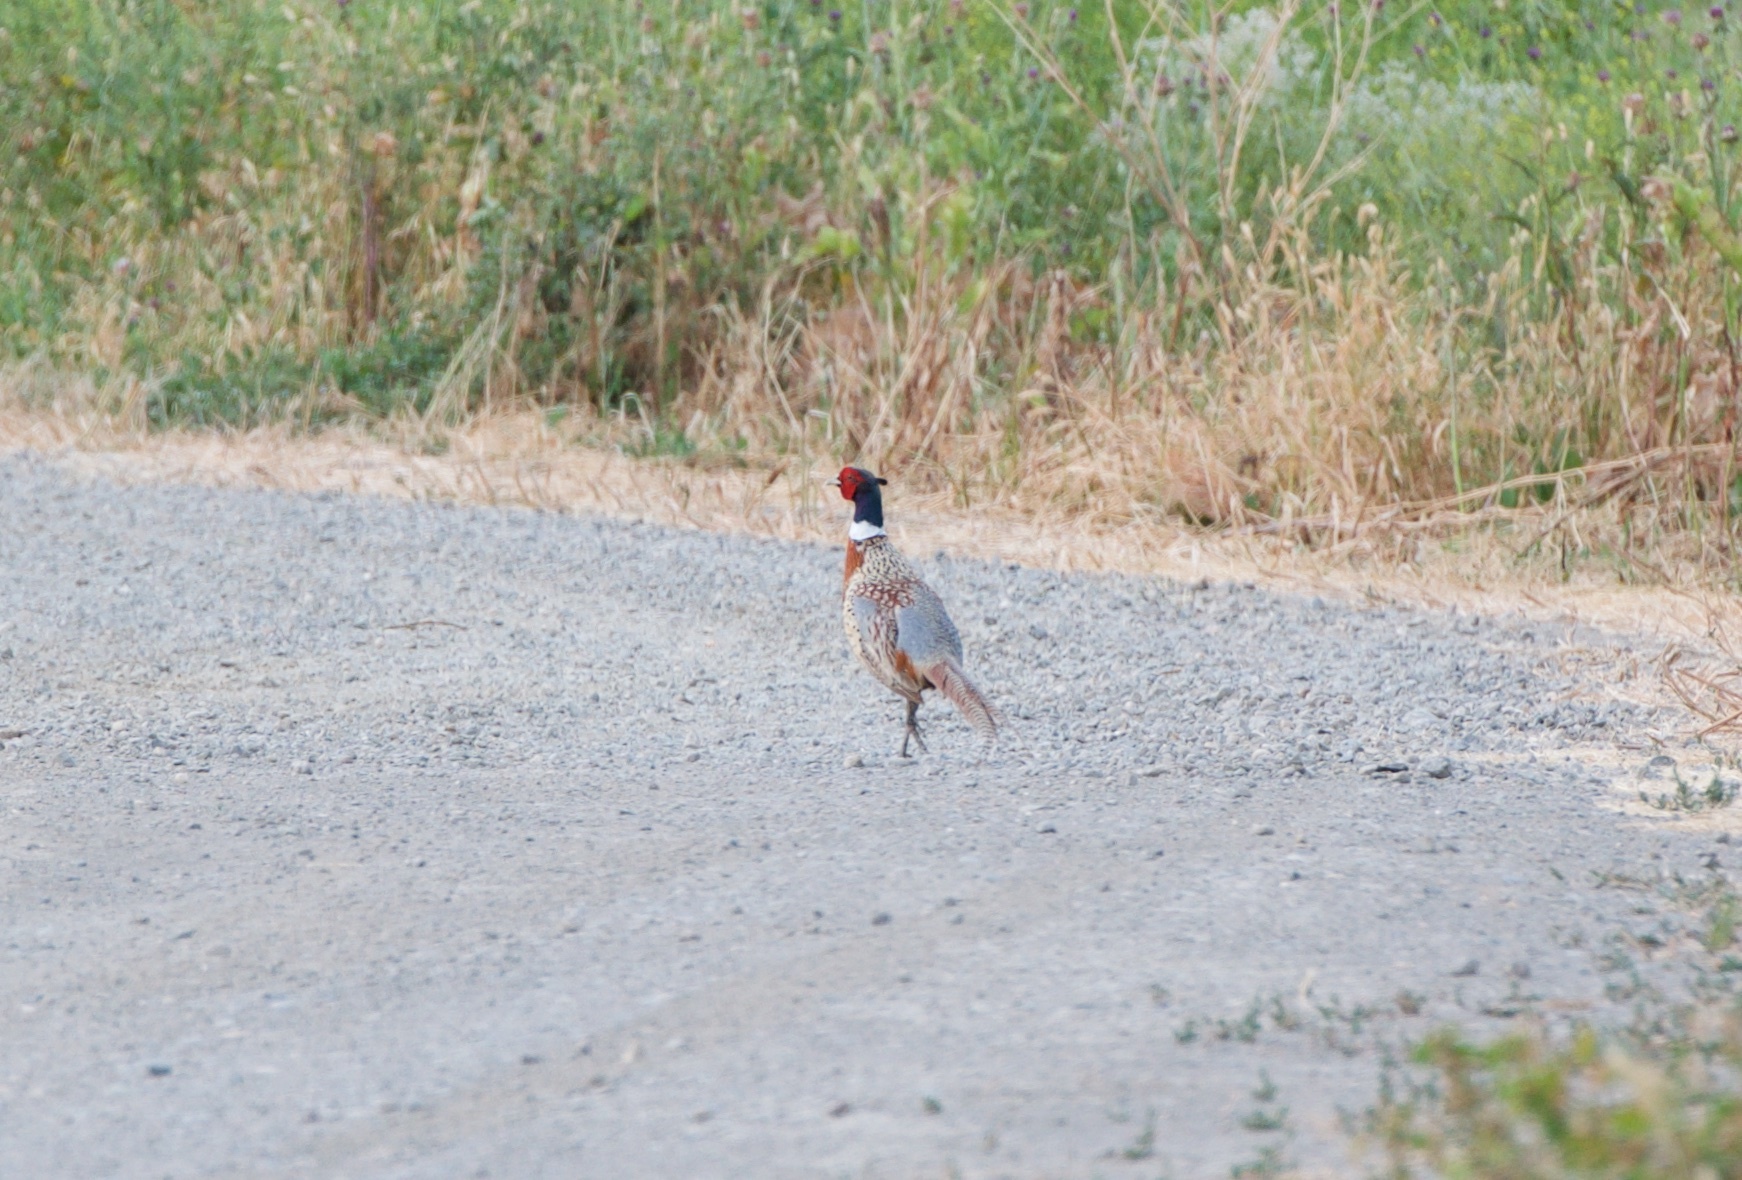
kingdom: Animalia
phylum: Chordata
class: Aves
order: Galliformes
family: Phasianidae
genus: Phasianus
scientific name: Phasianus colchicus
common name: Common pheasant
